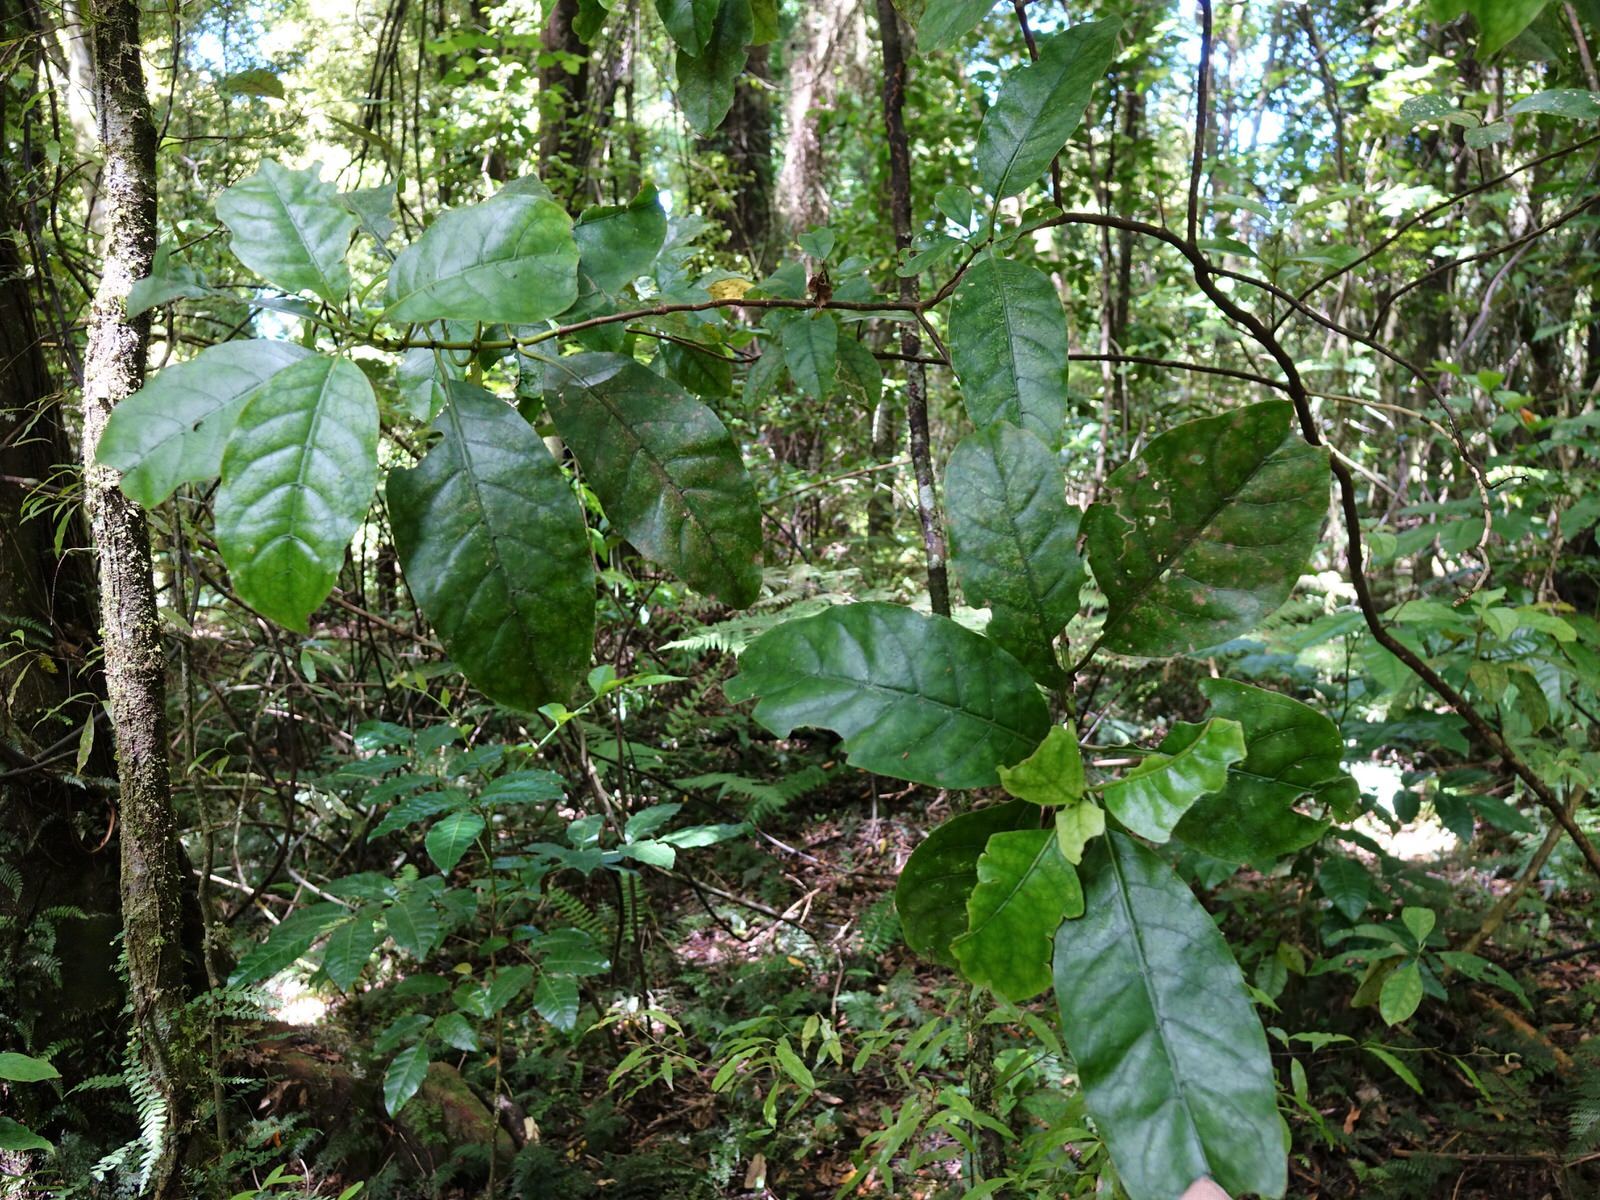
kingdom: Plantae
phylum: Tracheophyta
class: Magnoliopsida
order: Gentianales
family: Rubiaceae
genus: Coprosma
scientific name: Coprosma autumnalis
